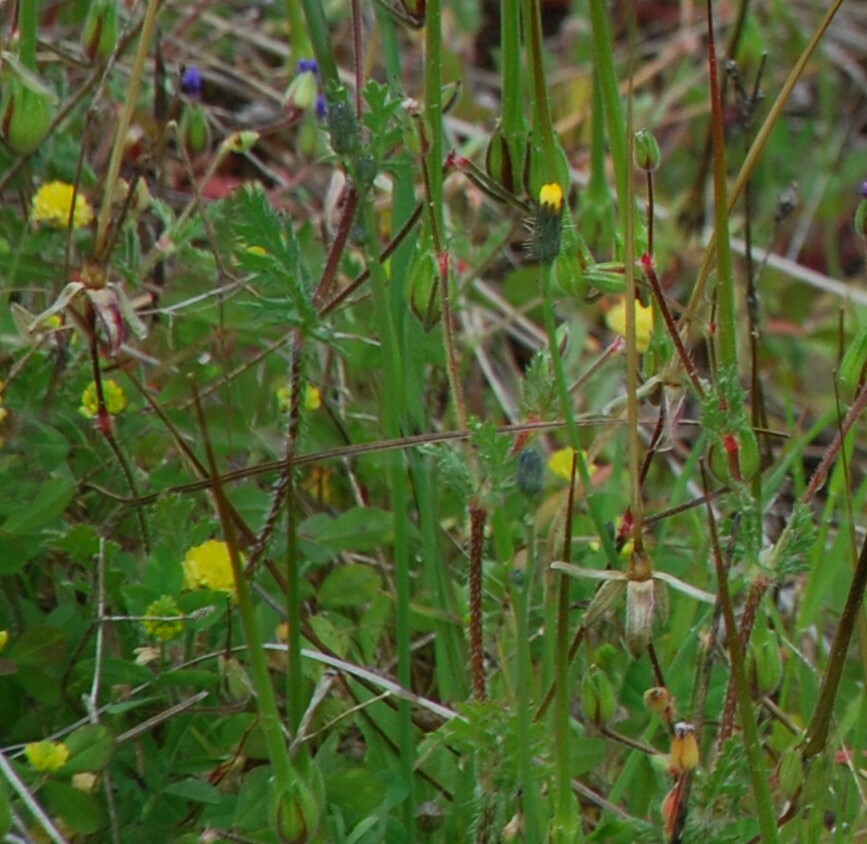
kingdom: Plantae
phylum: Tracheophyta
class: Magnoliopsida
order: Geraniales
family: Geraniaceae
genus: Erodium
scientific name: Erodium botrys
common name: Mediterranean stork's-bill
